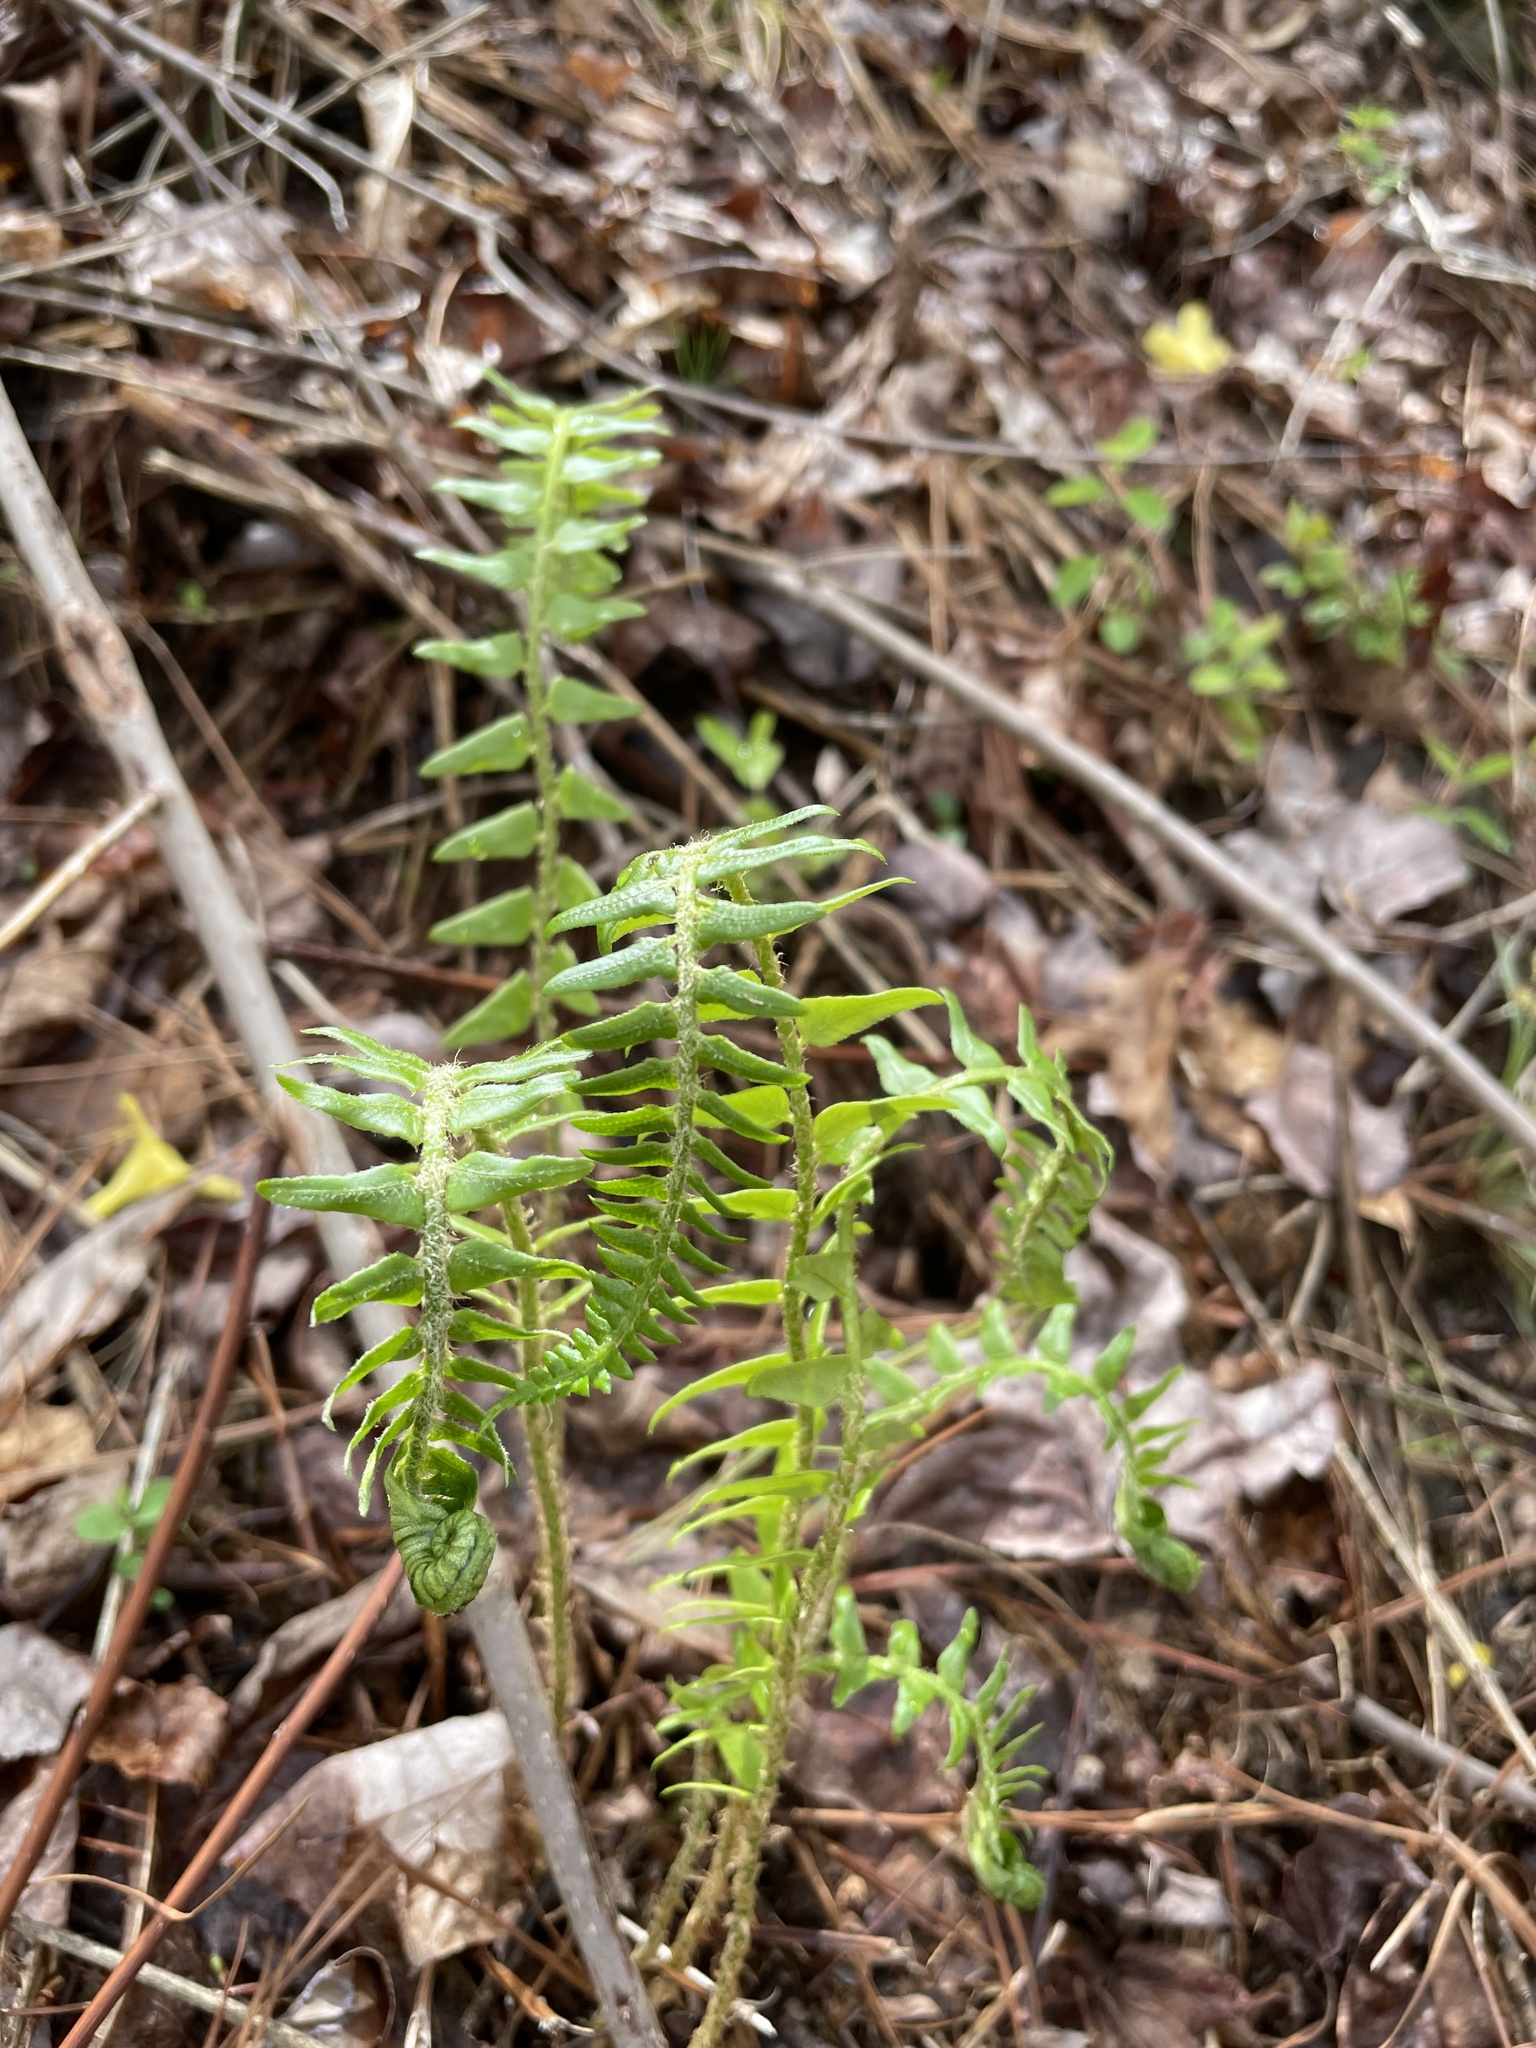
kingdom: Plantae
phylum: Tracheophyta
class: Polypodiopsida
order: Polypodiales
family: Dryopteridaceae
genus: Polystichum
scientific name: Polystichum acrostichoides
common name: Christmas fern
